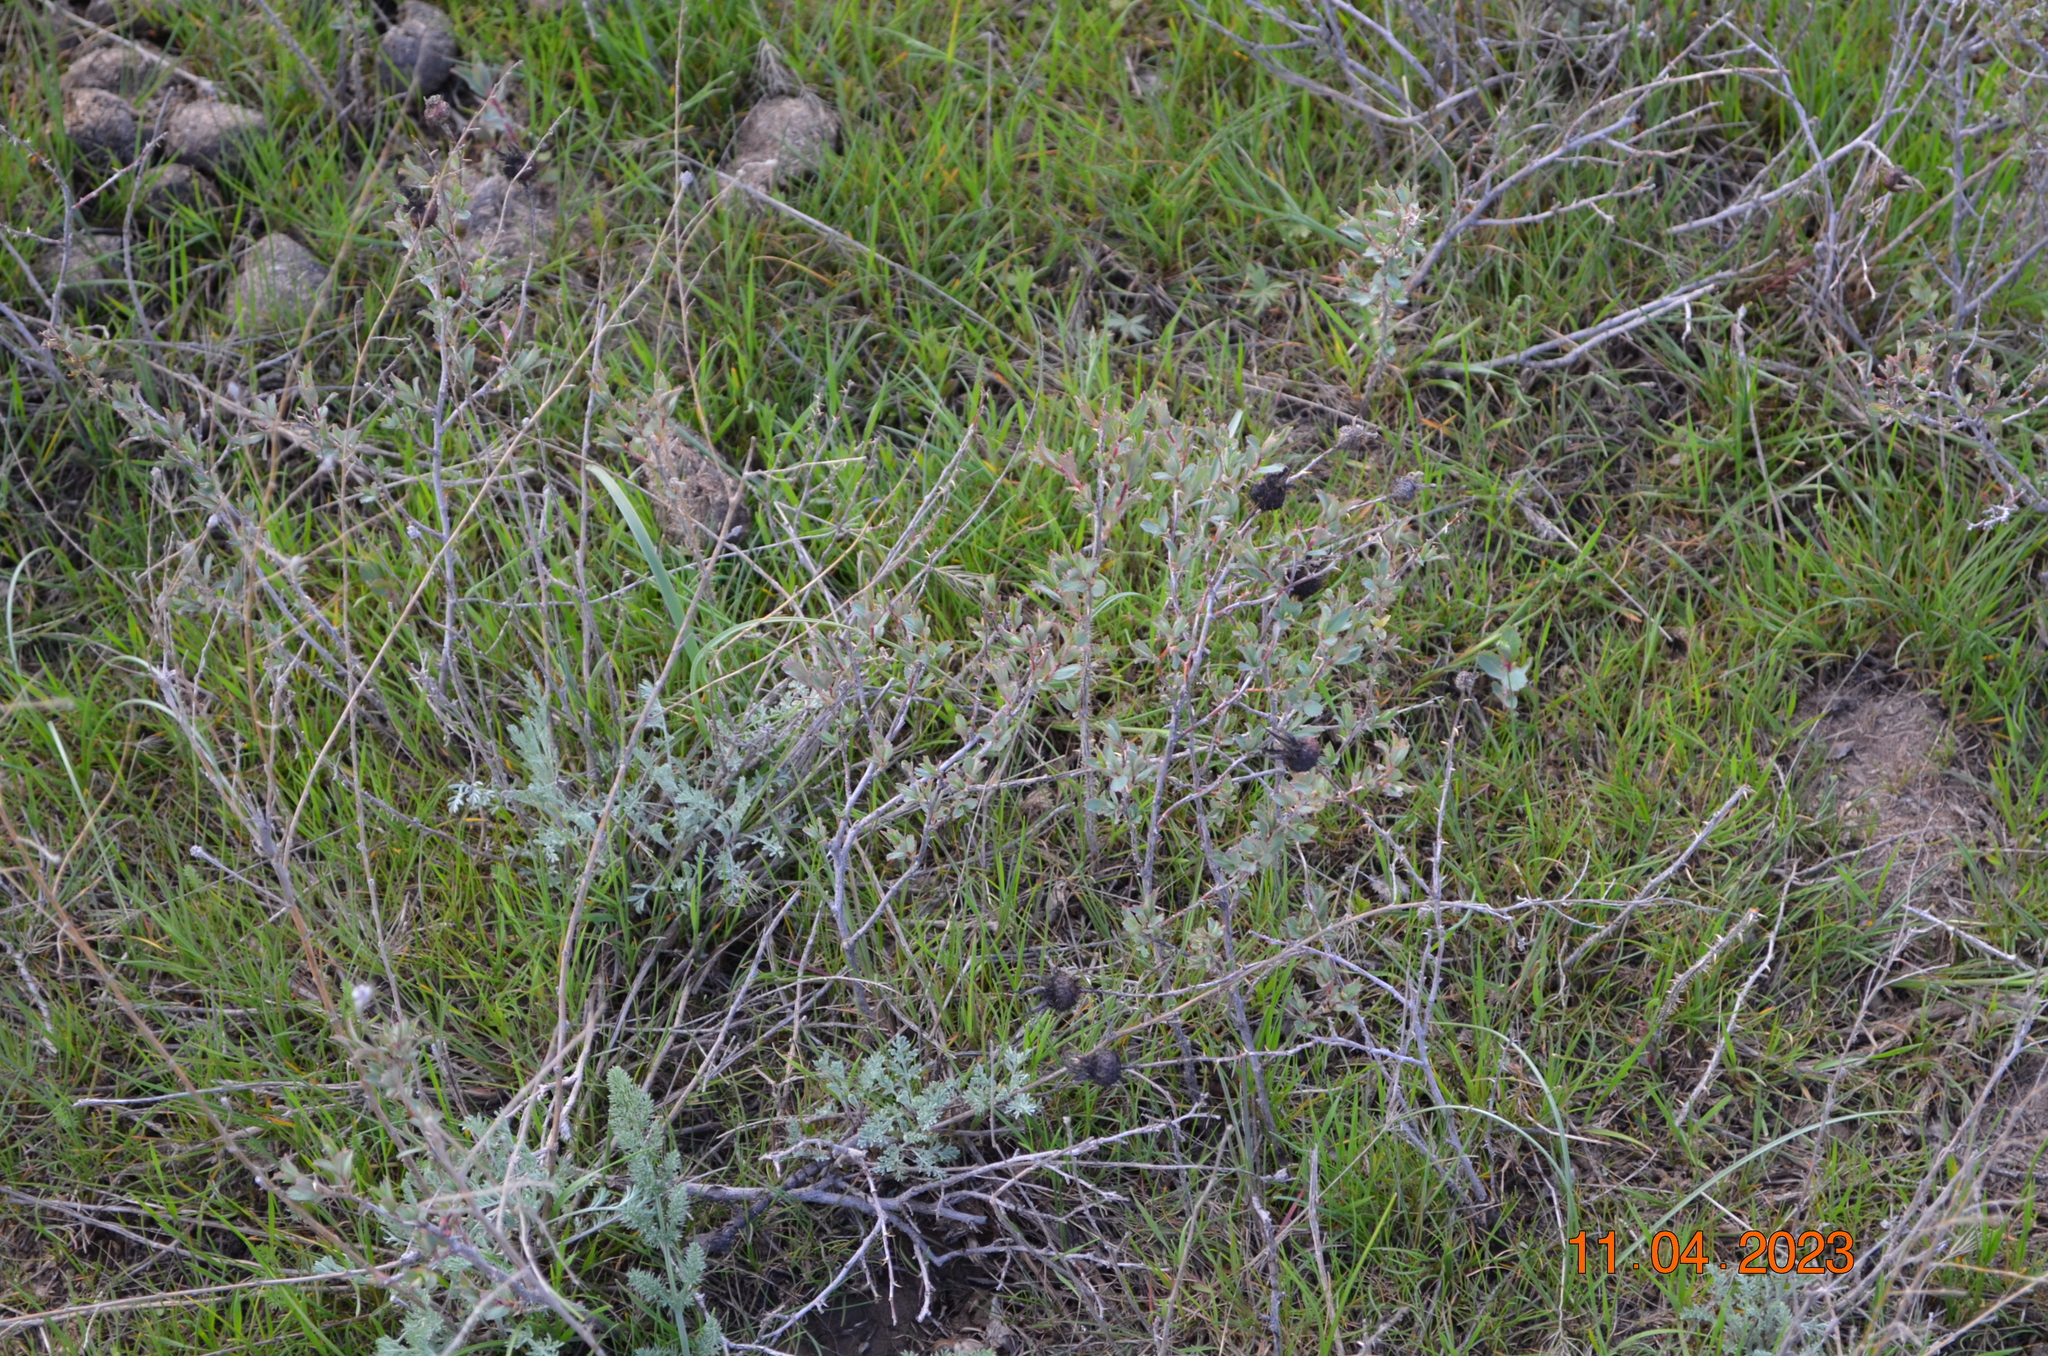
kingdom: Plantae
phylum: Tracheophyta
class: Magnoliopsida
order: Rosales
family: Rosaceae
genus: Rosa
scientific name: Rosa persica
